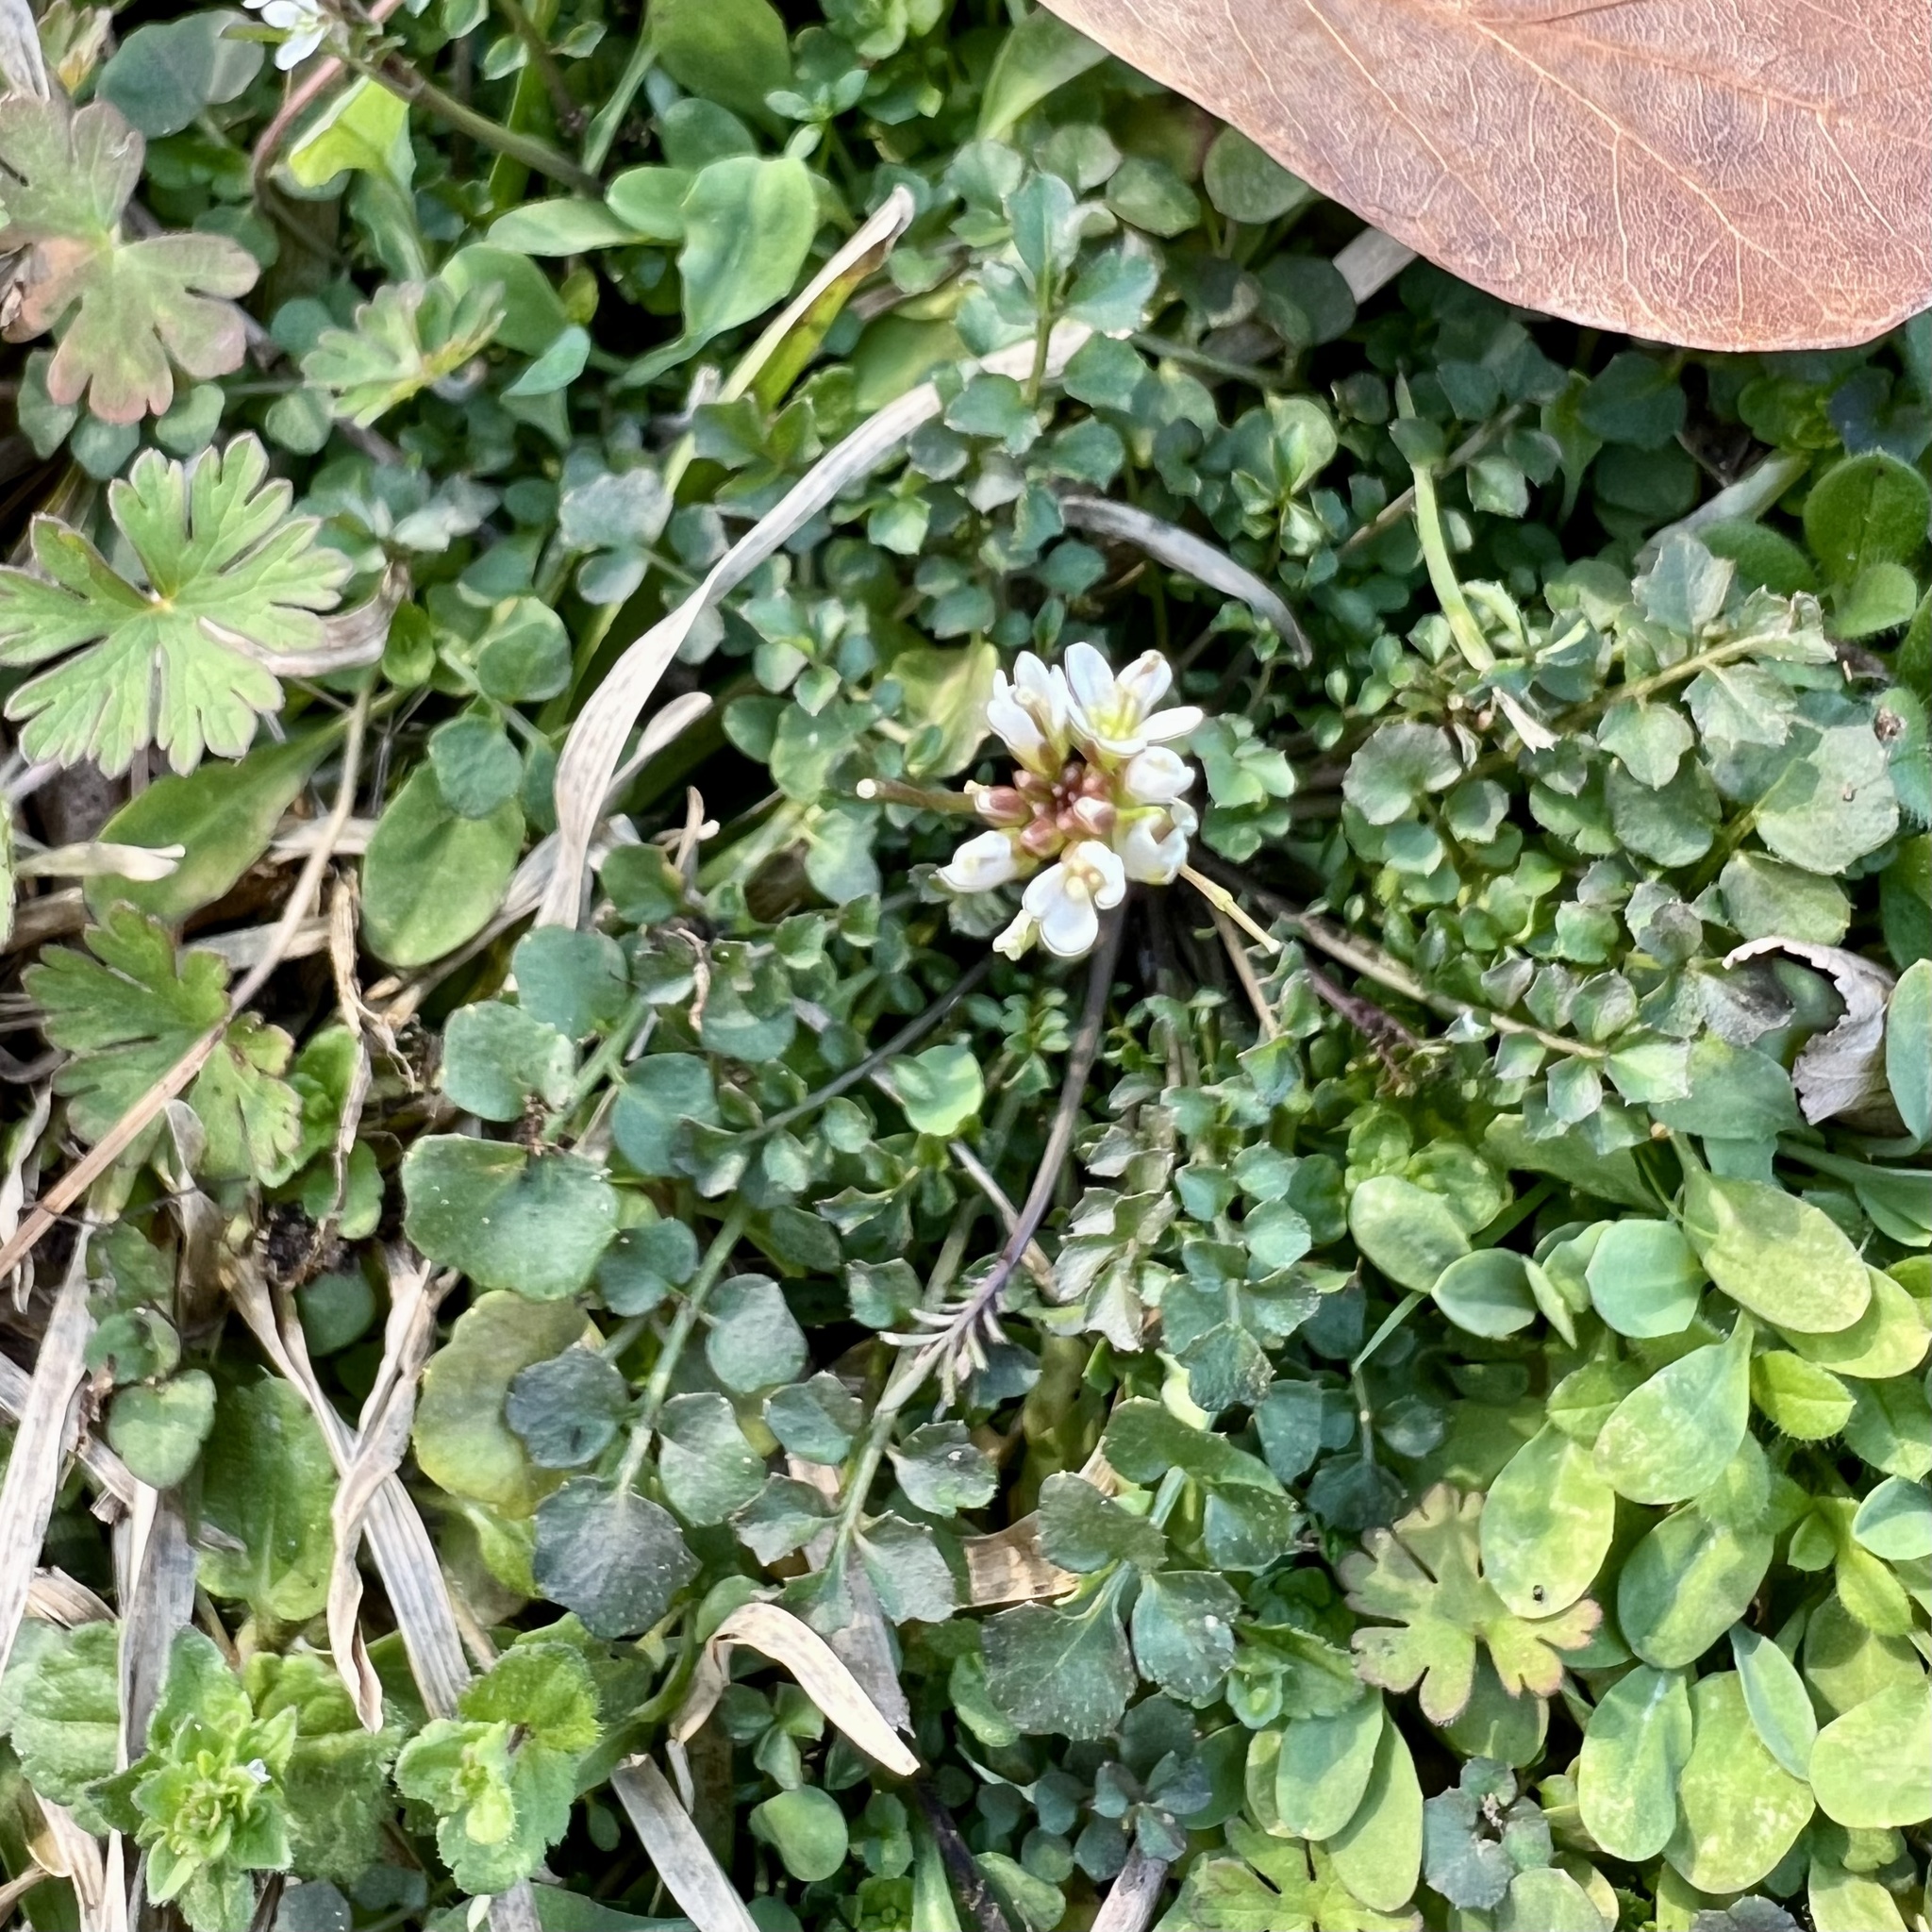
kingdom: Plantae
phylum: Tracheophyta
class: Magnoliopsida
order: Brassicales
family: Brassicaceae
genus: Cardamine
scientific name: Cardamine hirsuta
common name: Hairy bittercress
